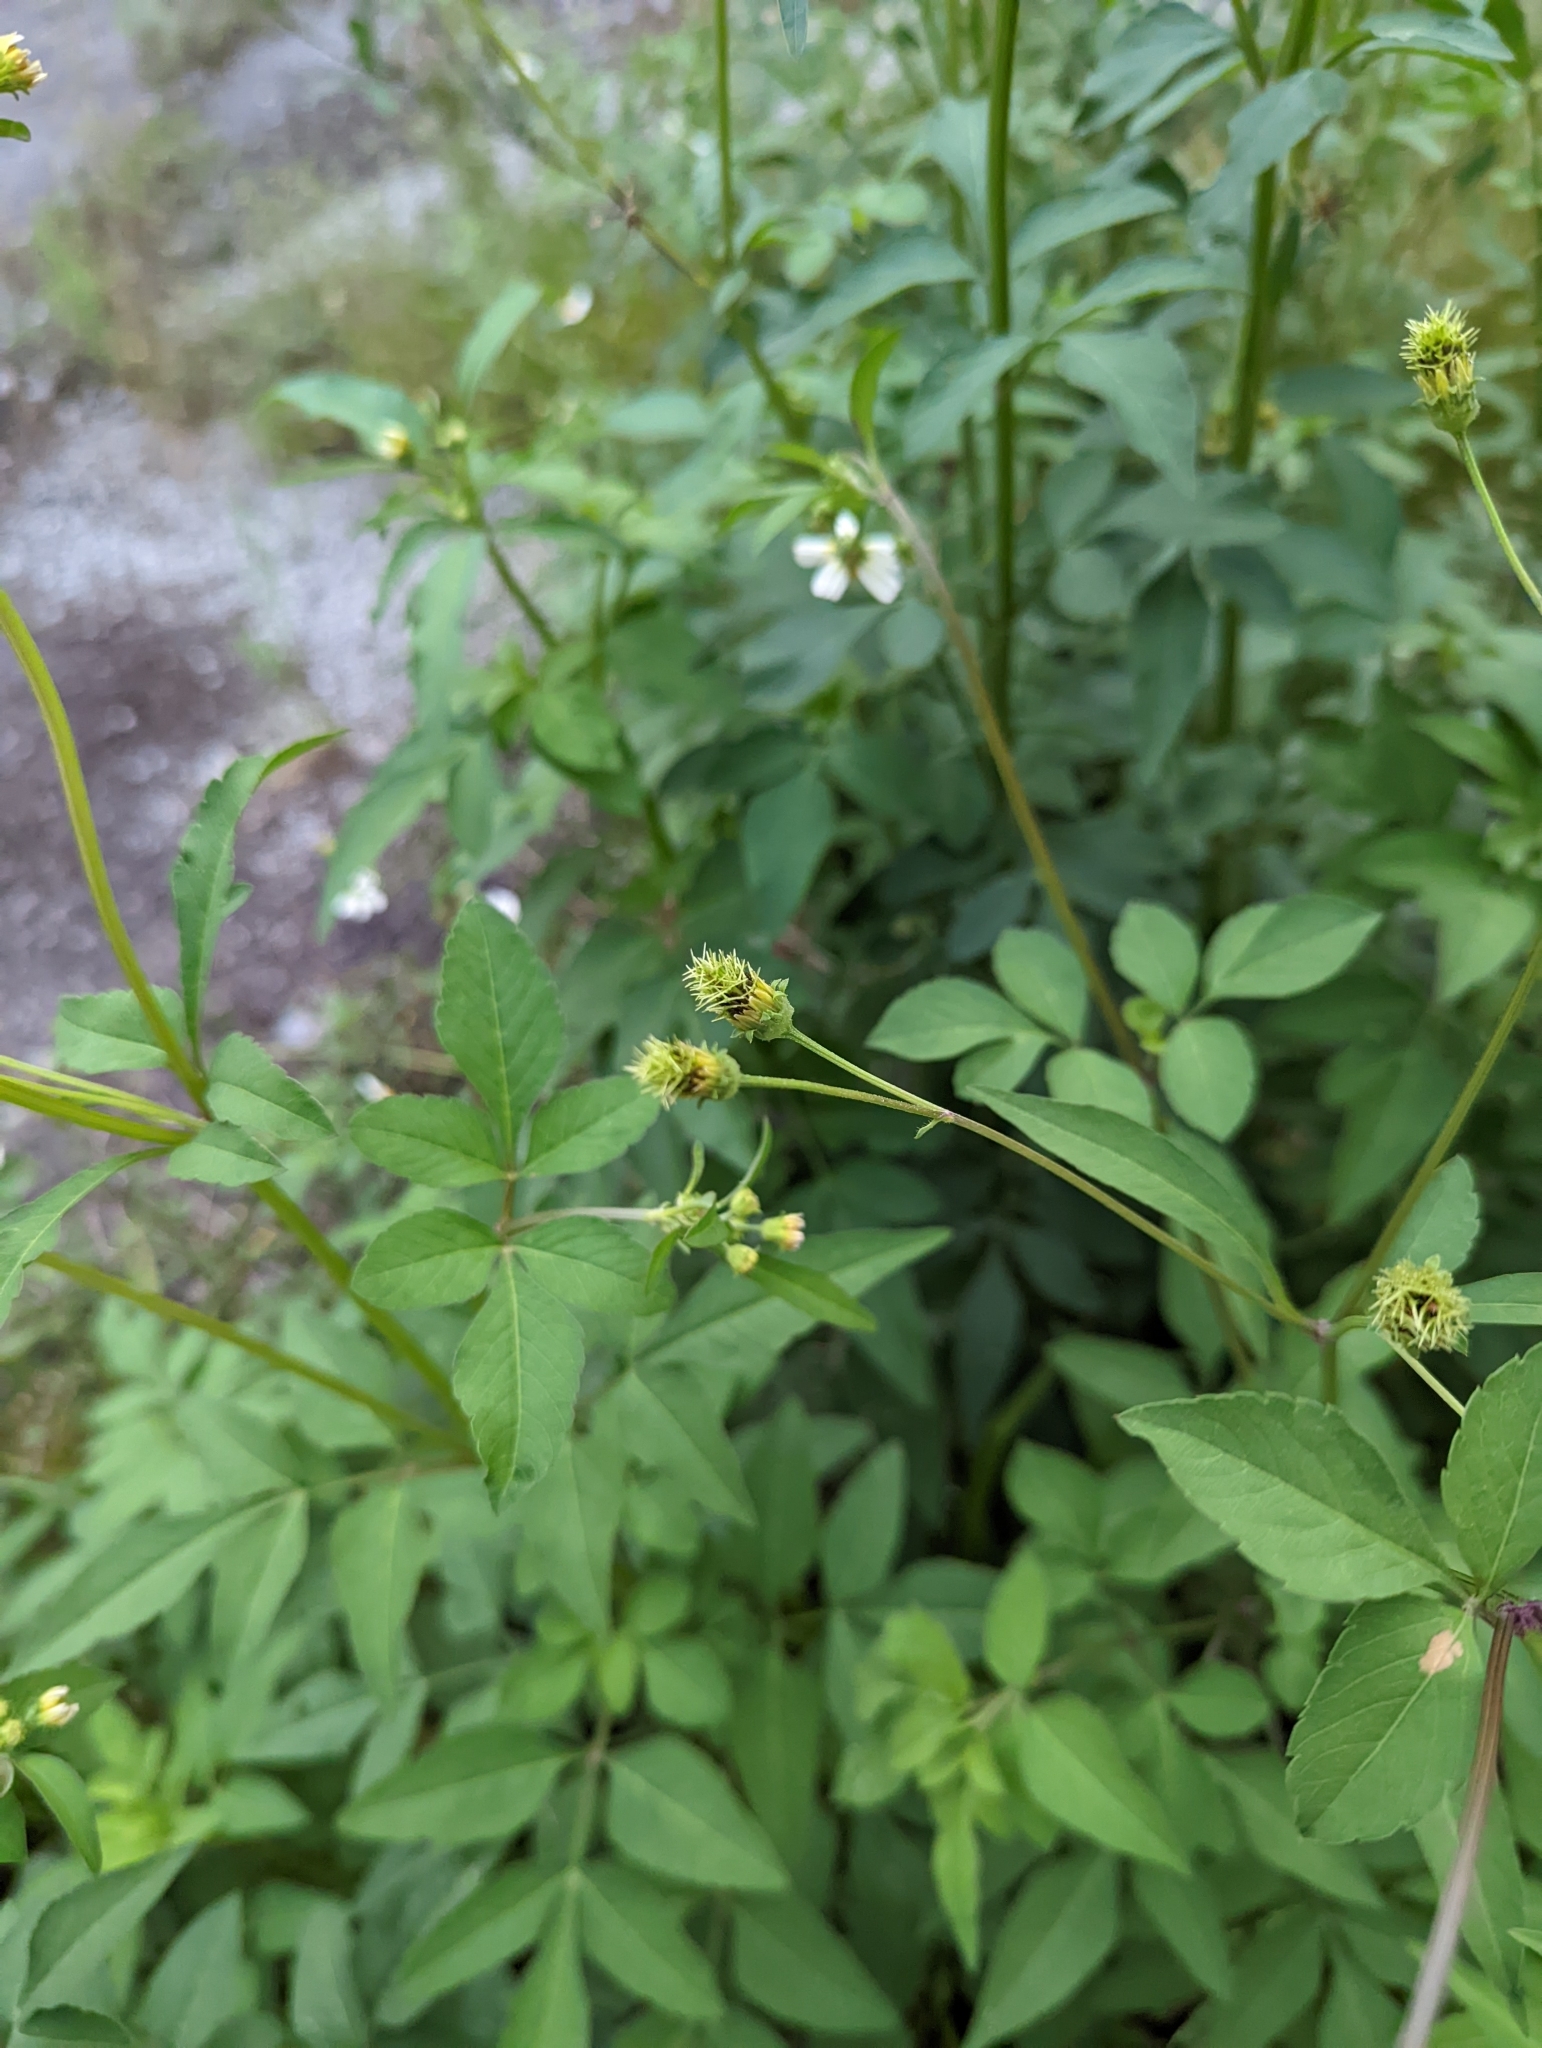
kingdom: Plantae
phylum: Tracheophyta
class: Magnoliopsida
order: Asterales
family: Asteraceae
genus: Bidens
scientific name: Bidens alba
